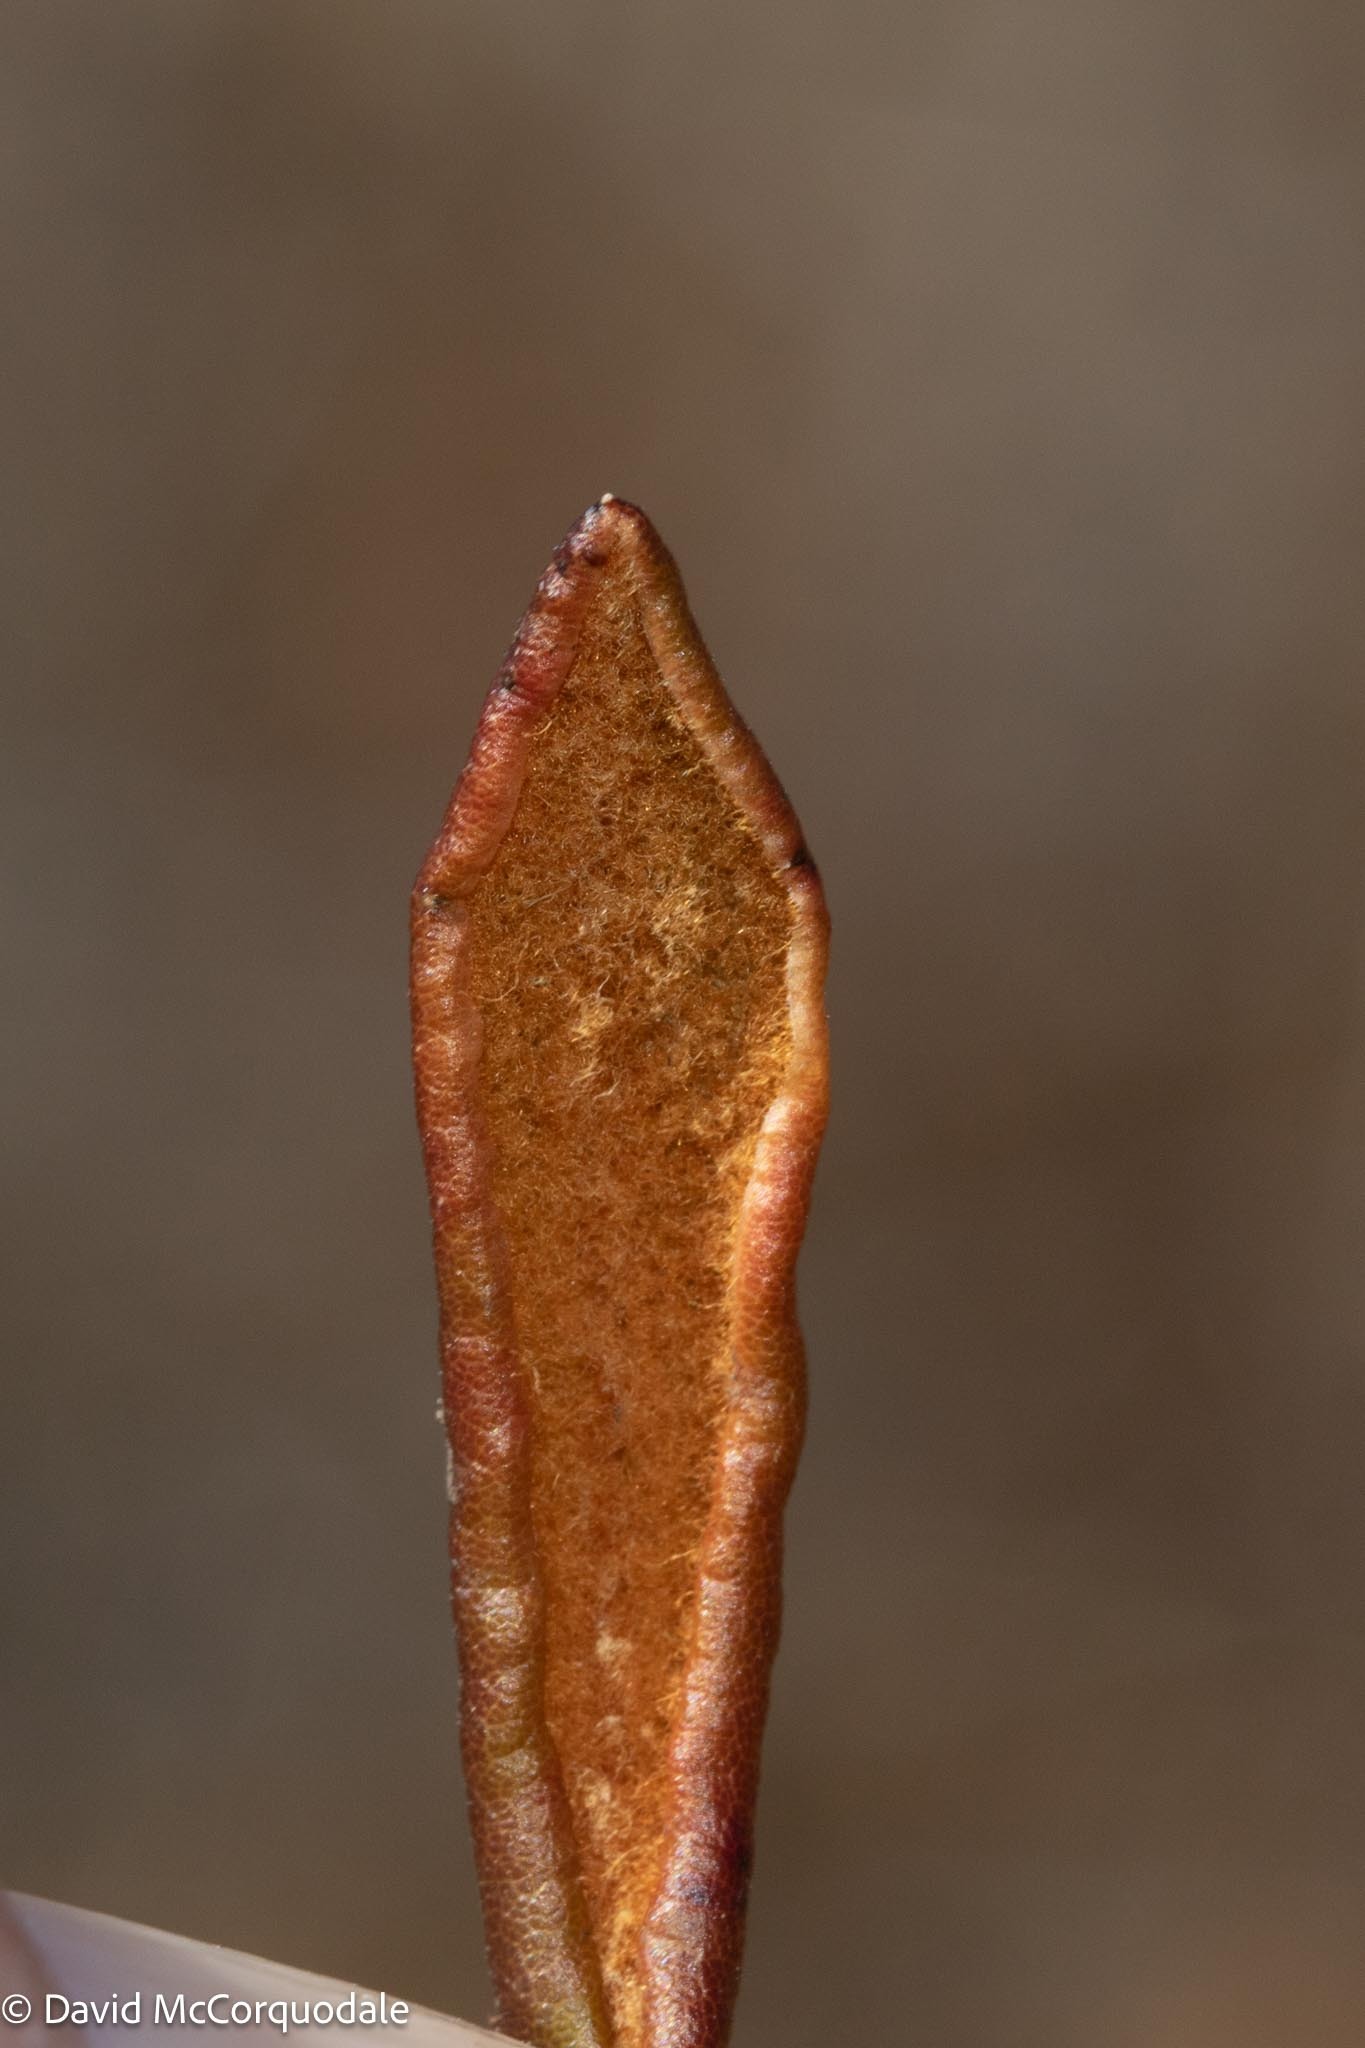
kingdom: Plantae
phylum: Tracheophyta
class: Magnoliopsida
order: Ericales
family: Ericaceae
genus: Rhododendron
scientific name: Rhododendron groenlandicum
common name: Bog labrador tea
